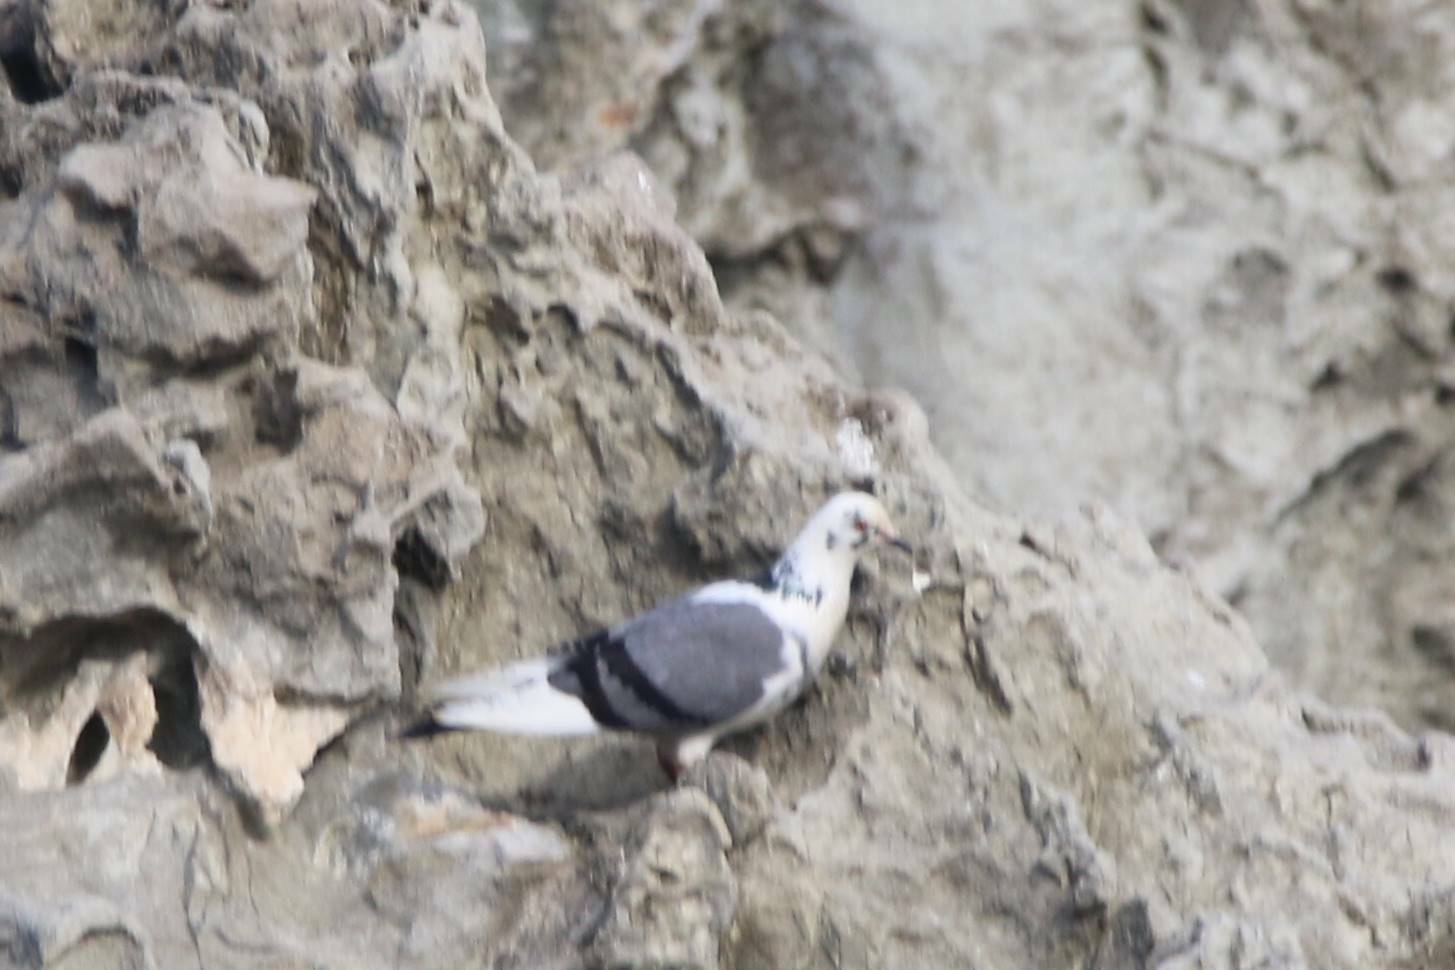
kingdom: Animalia
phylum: Chordata
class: Aves
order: Columbiformes
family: Columbidae
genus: Columba
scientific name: Columba livia
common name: Rock pigeon
